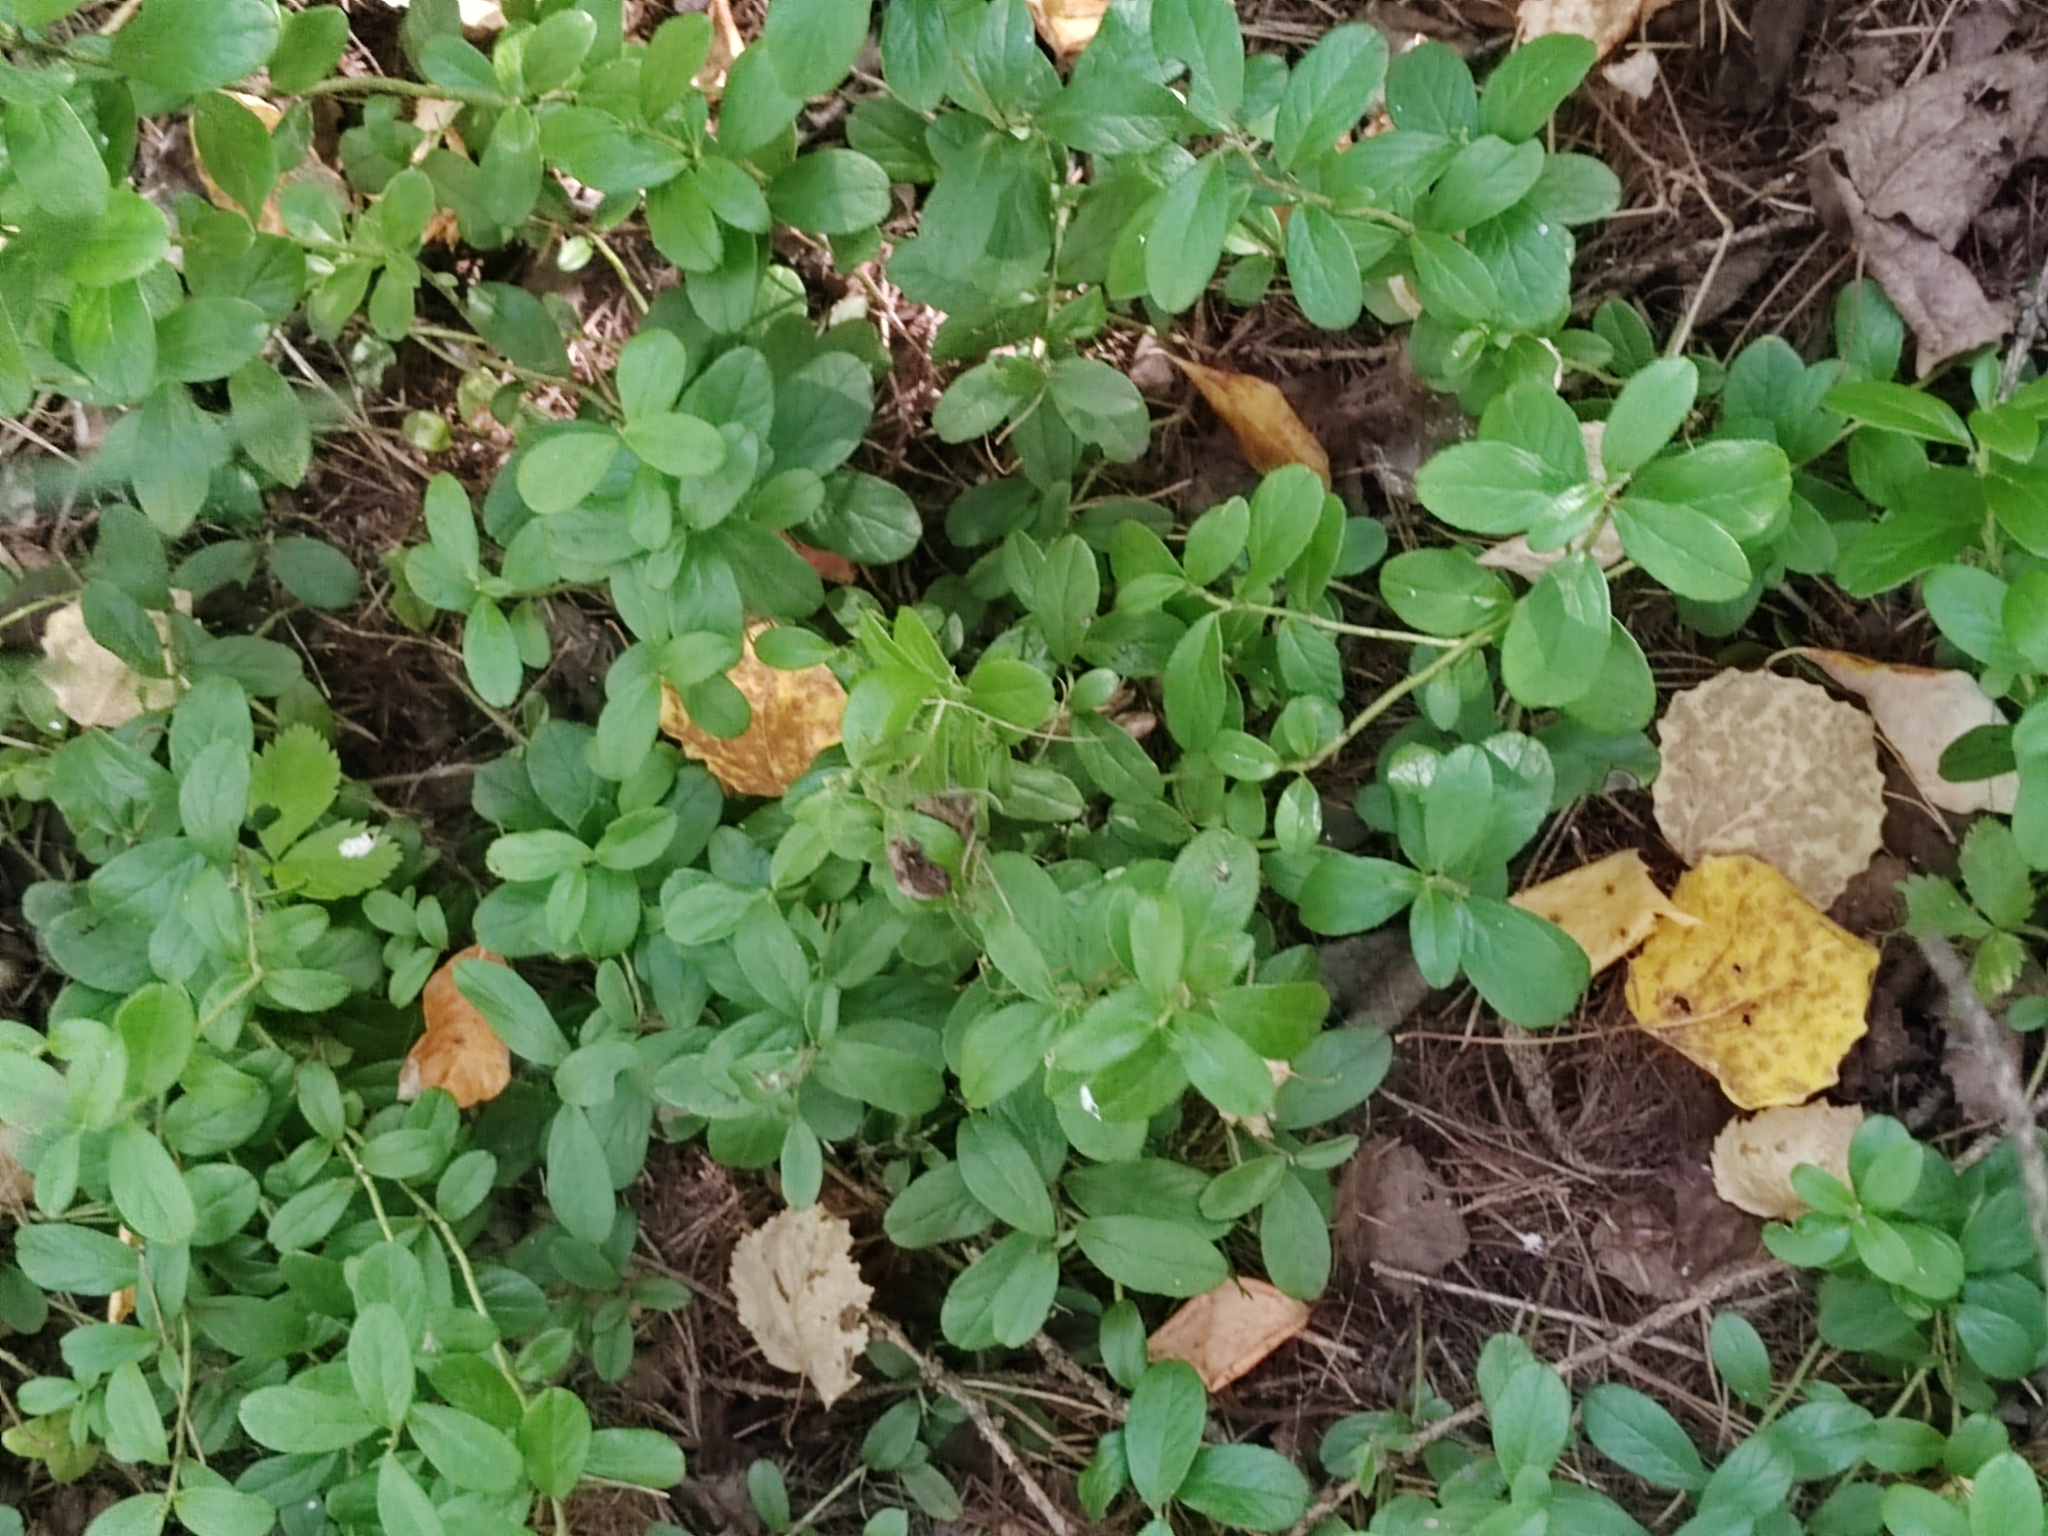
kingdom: Plantae
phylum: Tracheophyta
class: Magnoliopsida
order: Ericales
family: Ericaceae
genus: Vaccinium
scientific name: Vaccinium vitis-idaea
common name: Cowberry
